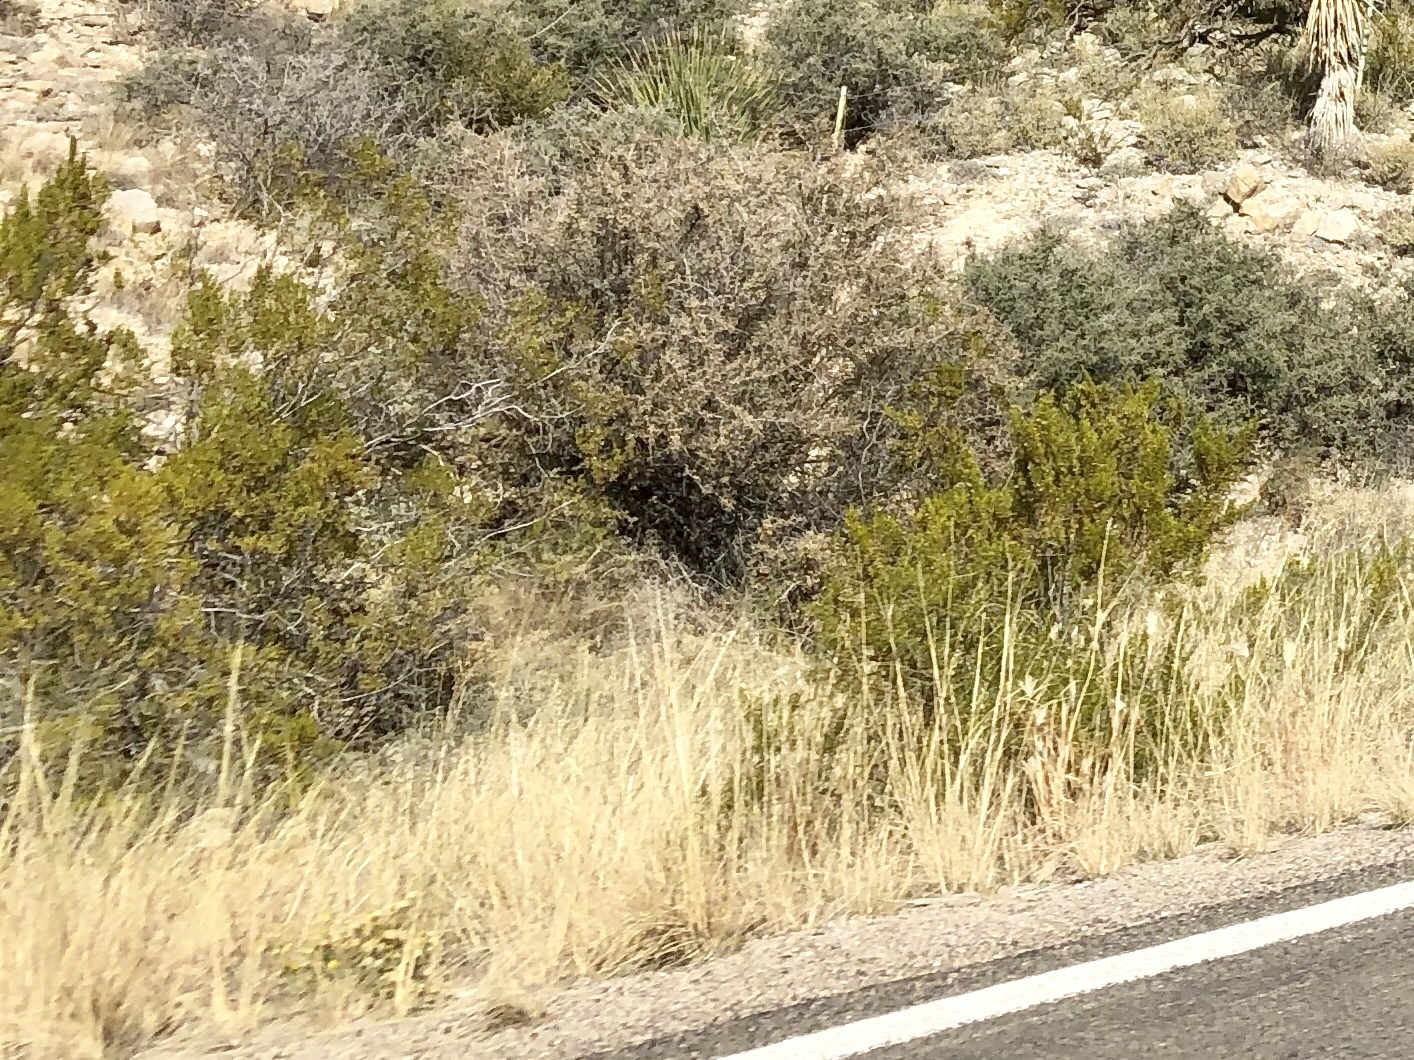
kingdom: Plantae
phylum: Tracheophyta
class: Magnoliopsida
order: Zygophyllales
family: Zygophyllaceae
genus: Larrea
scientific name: Larrea tridentata
